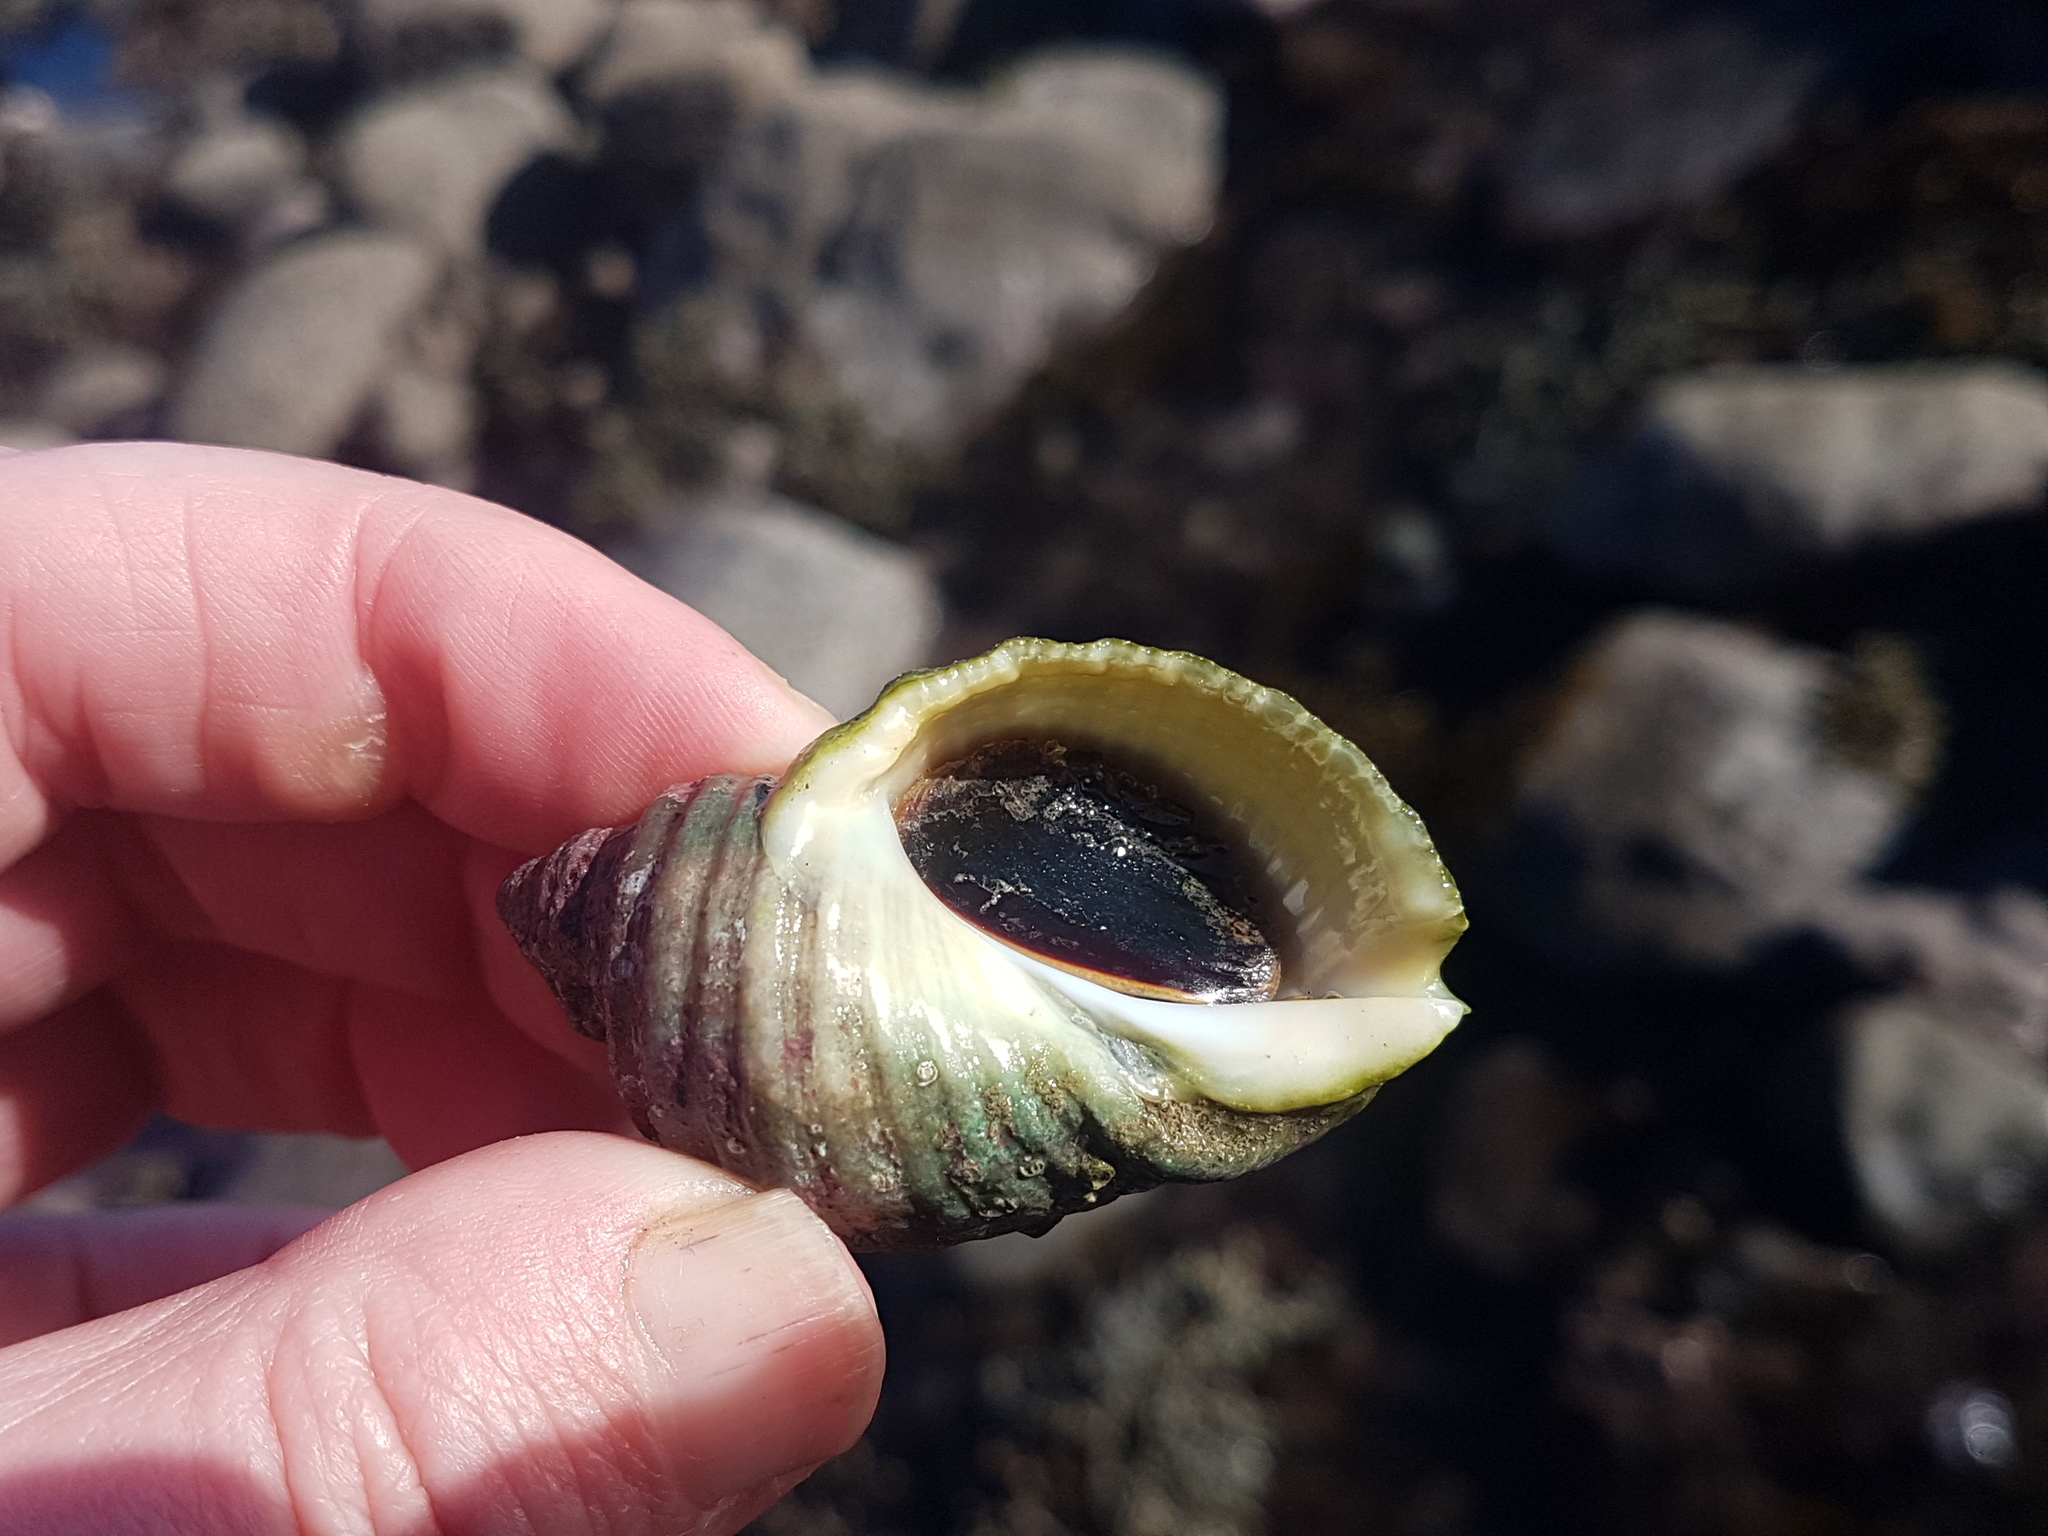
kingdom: Animalia
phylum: Mollusca
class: Gastropoda
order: Neogastropoda
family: Muricidae
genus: Dicathais
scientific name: Dicathais orbita
